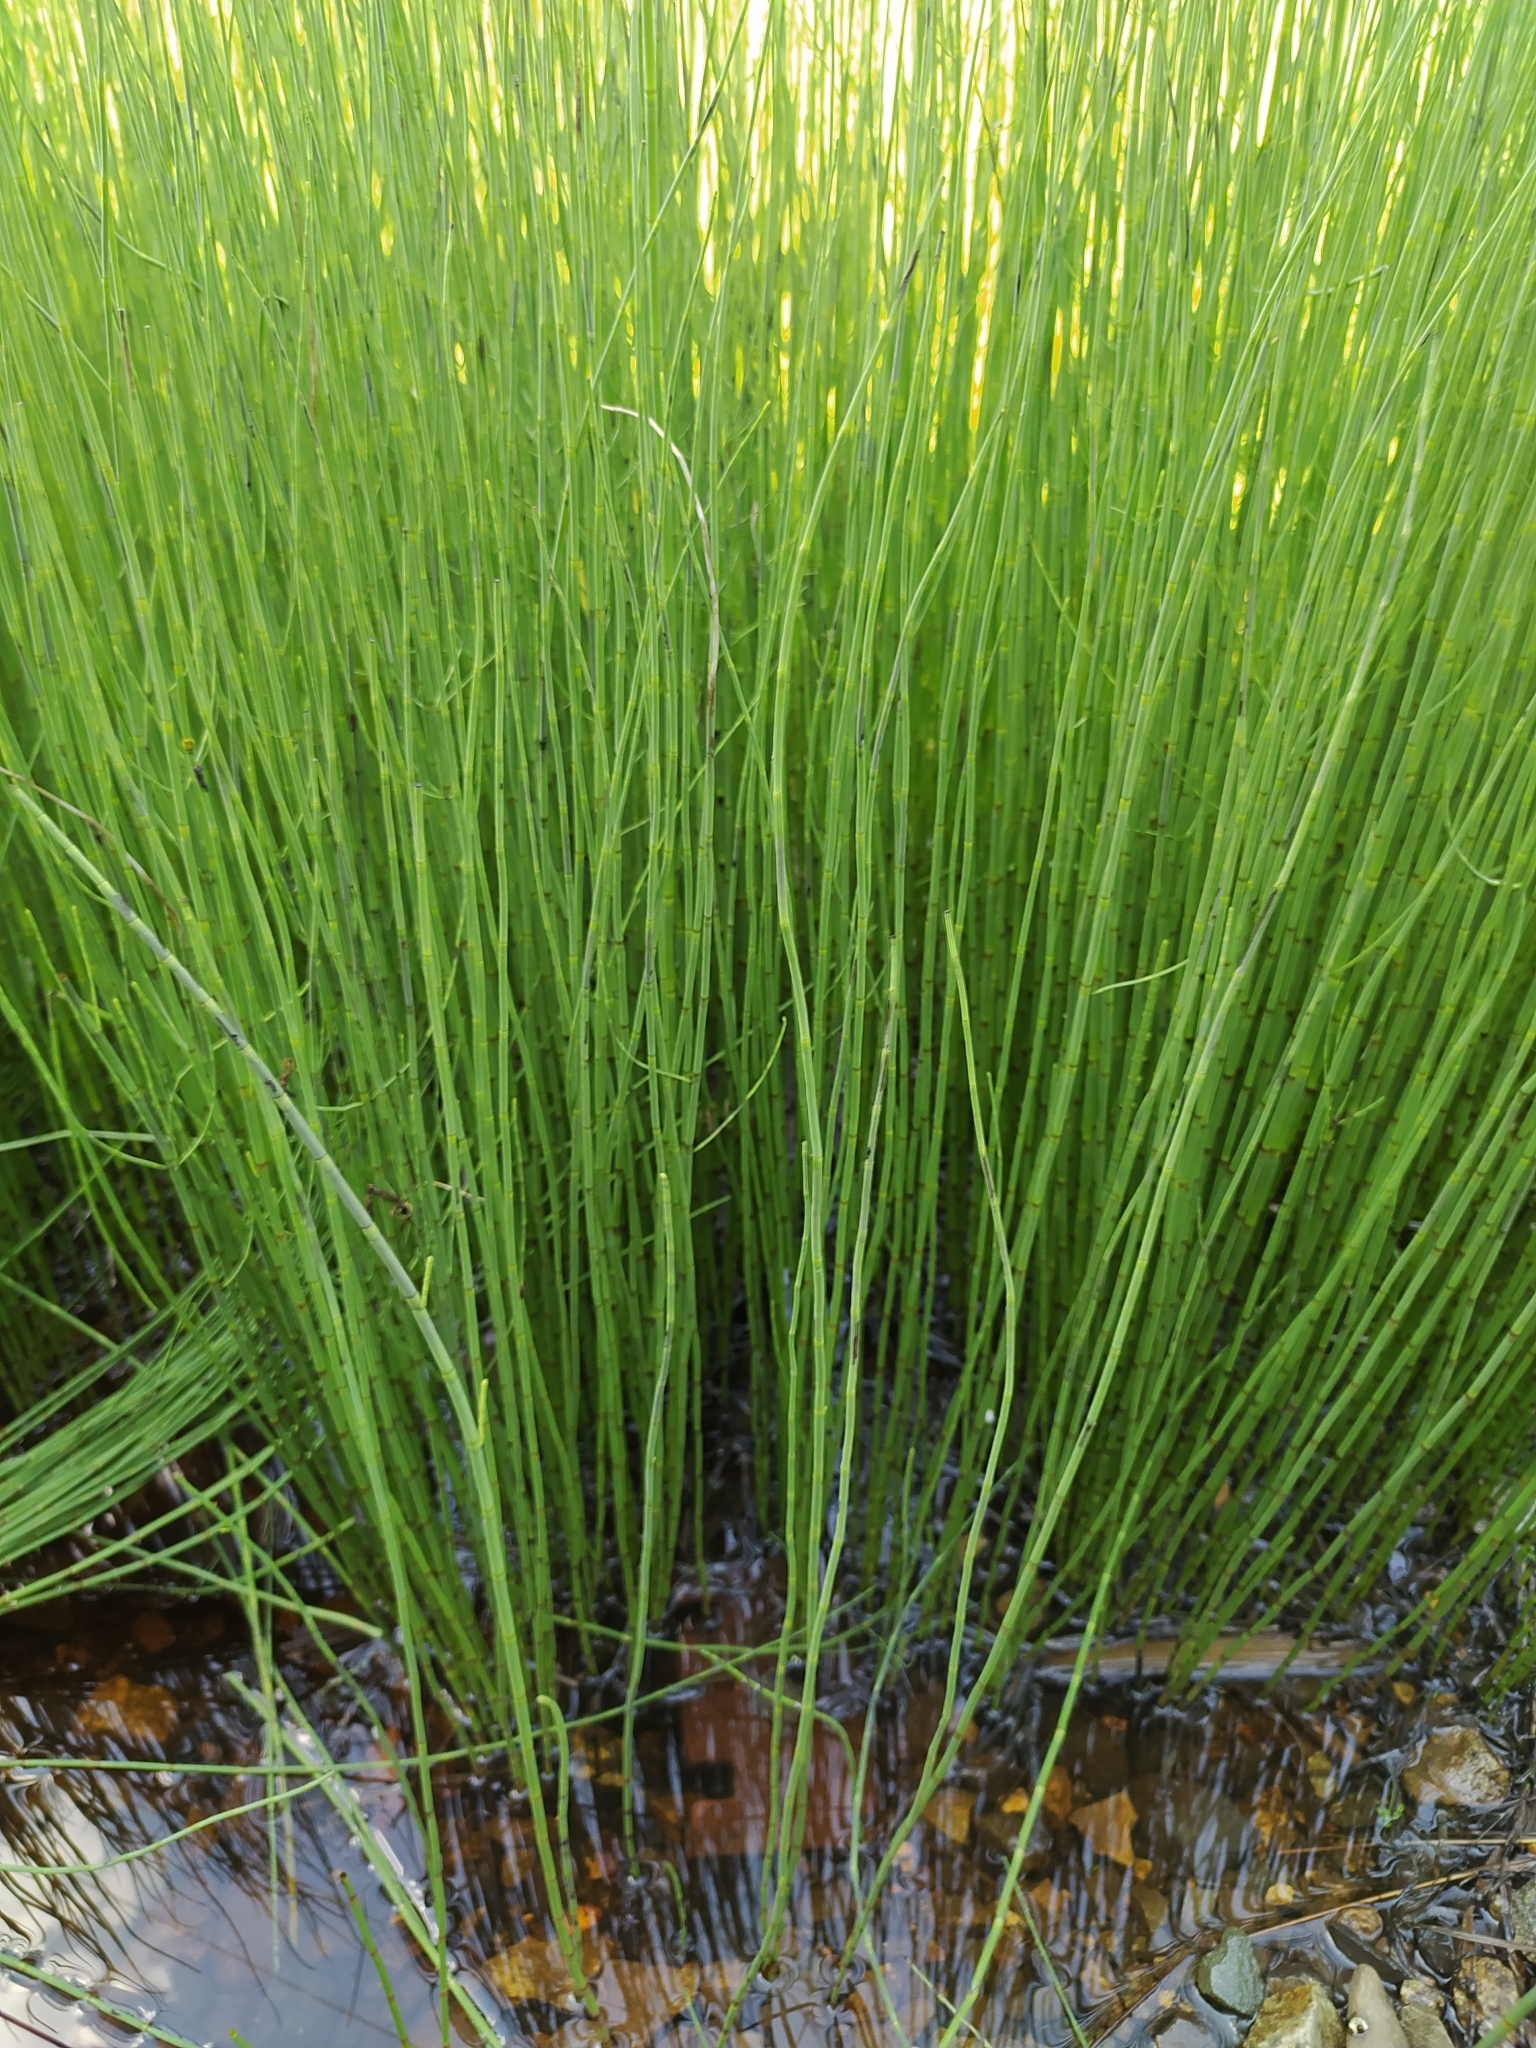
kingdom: Plantae
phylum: Tracheophyta
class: Polypodiopsida
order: Equisetales
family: Equisetaceae
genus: Equisetum
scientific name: Equisetum fluviatile
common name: Water horsetail
